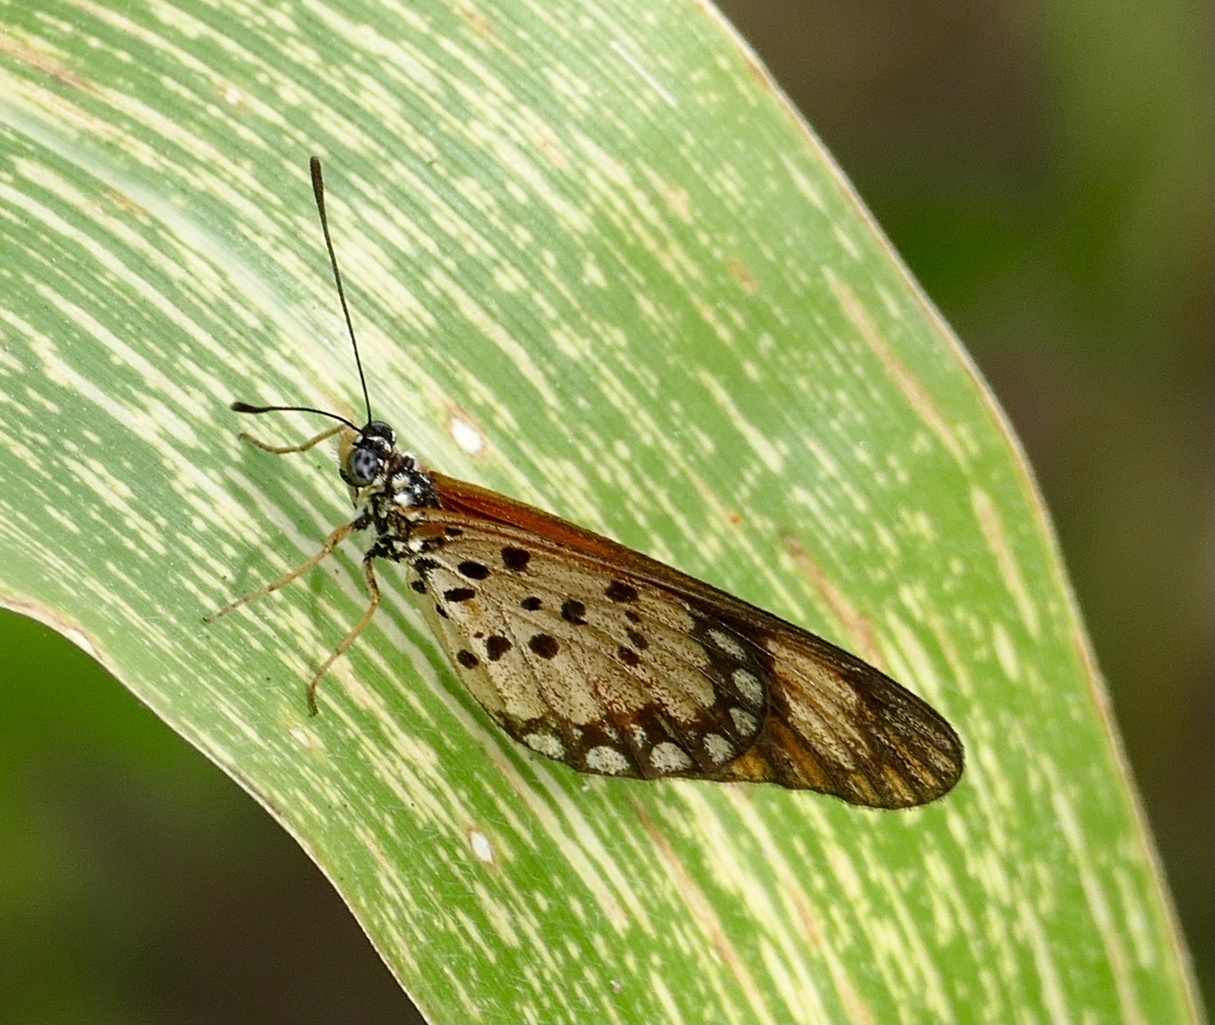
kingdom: Animalia
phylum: Arthropoda
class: Insecta
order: Lepidoptera
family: Nymphalidae
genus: Acraea
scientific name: Acraea Telchinia serena
